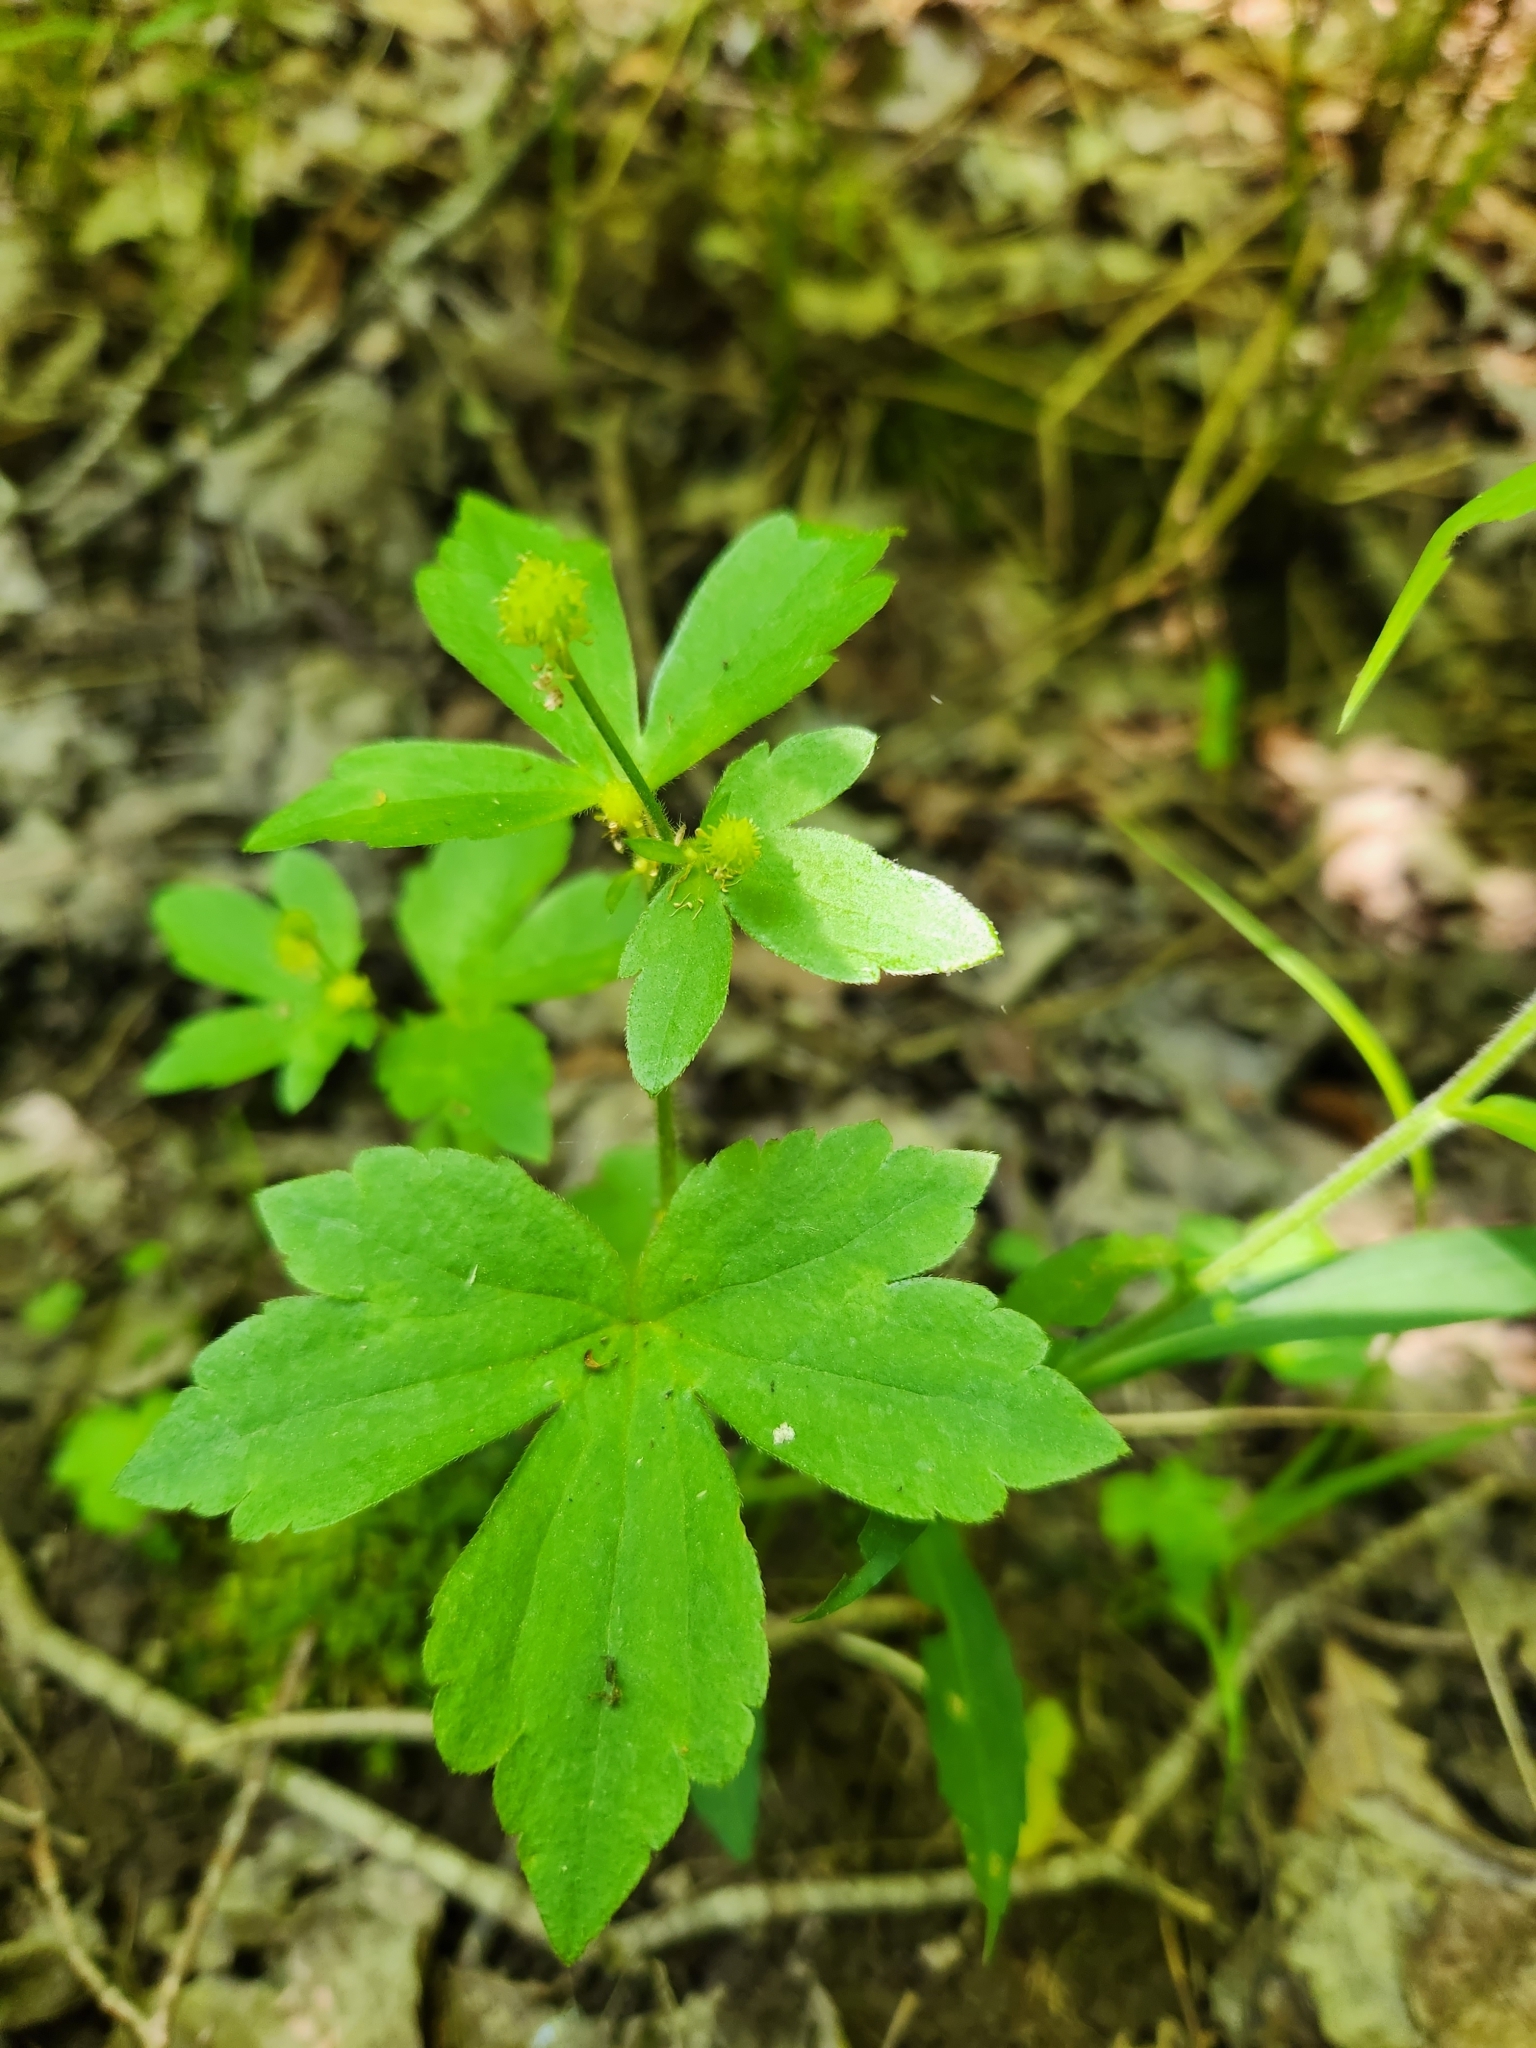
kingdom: Plantae
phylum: Tracheophyta
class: Magnoliopsida
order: Ranunculales
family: Ranunculaceae
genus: Ranunculus
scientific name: Ranunculus recurvatus
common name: Blisterwort
